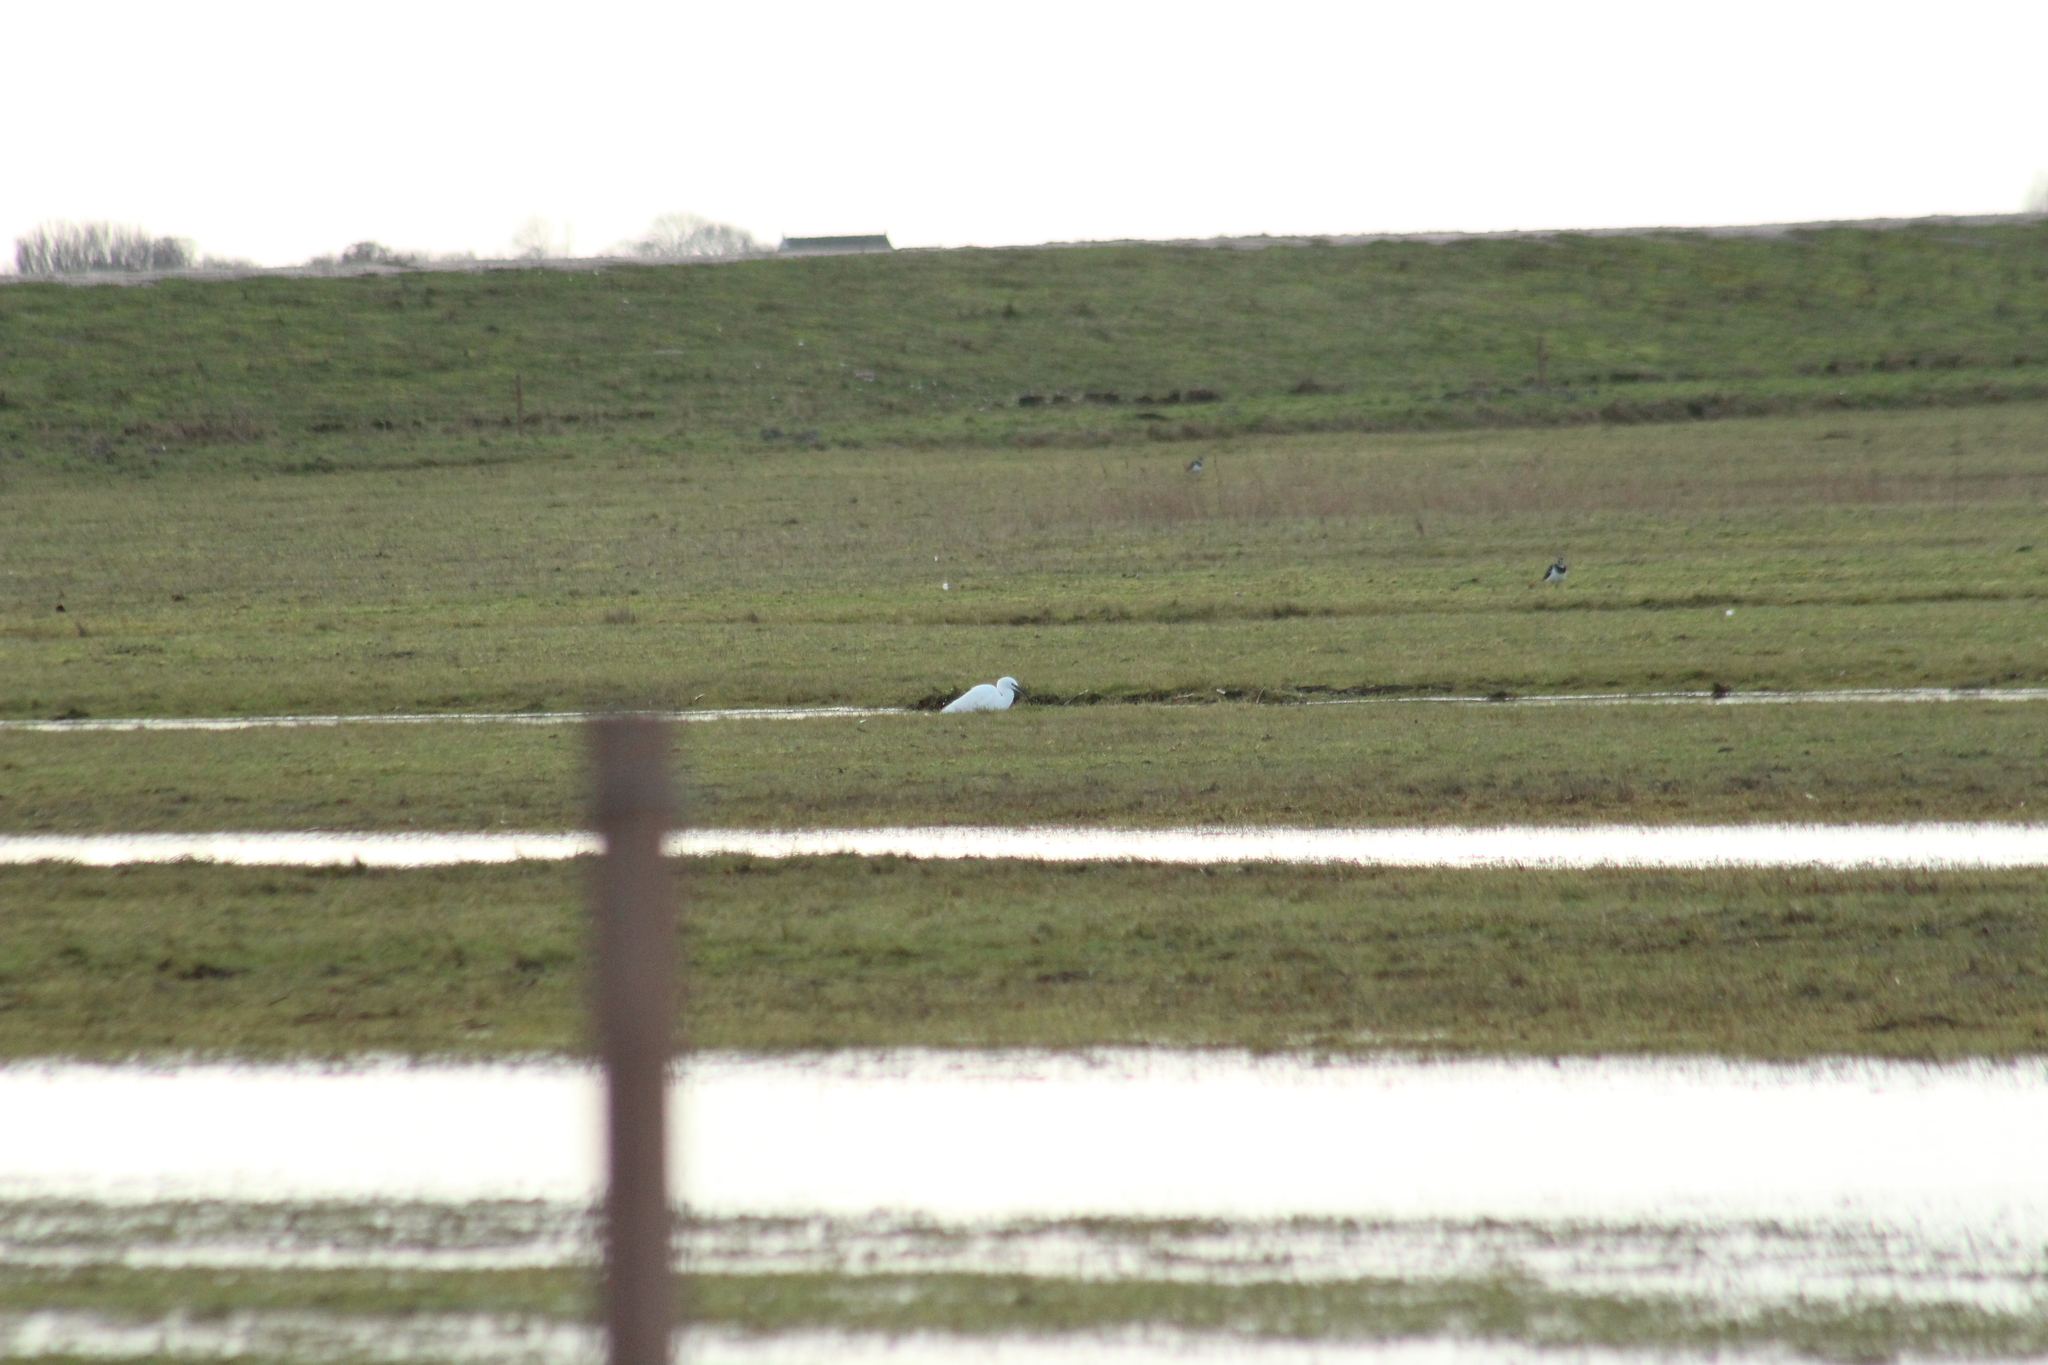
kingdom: Animalia
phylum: Chordata
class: Aves
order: Pelecaniformes
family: Ardeidae
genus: Egretta
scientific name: Egretta garzetta
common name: Little egret
